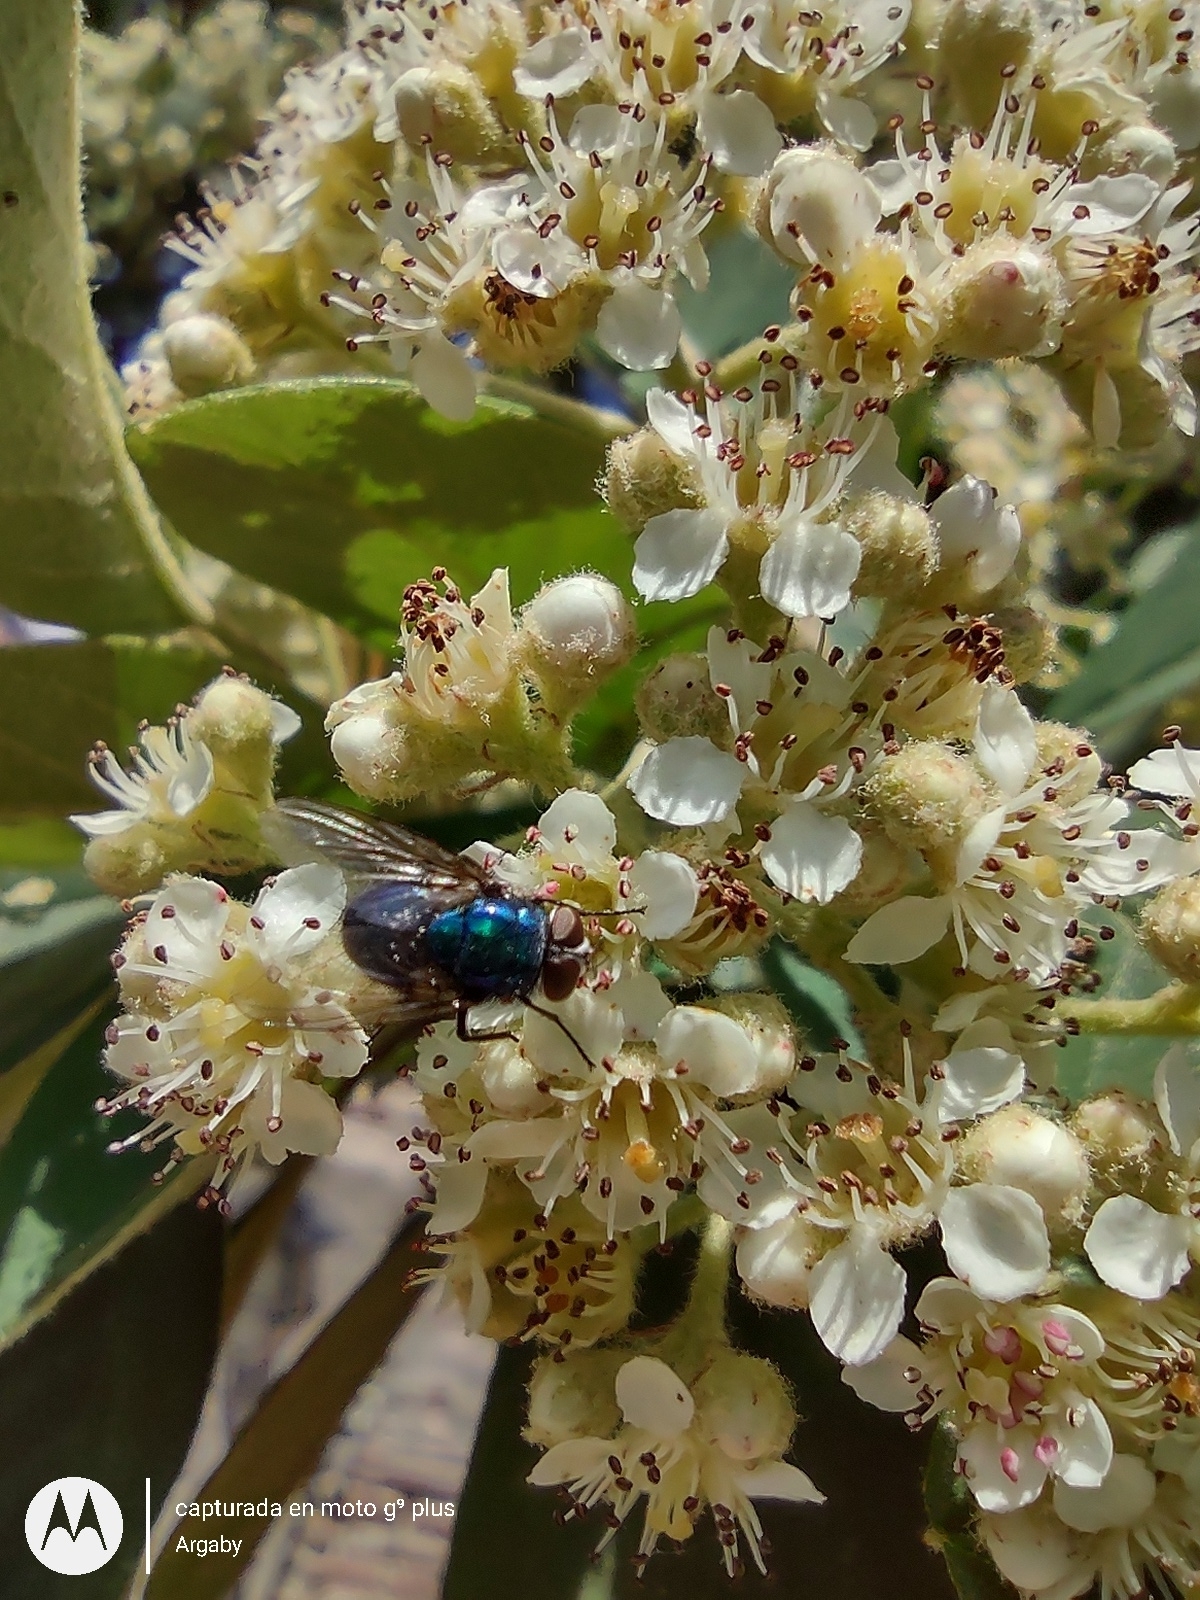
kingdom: Animalia
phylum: Arthropoda
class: Insecta
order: Diptera
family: Calliphoridae
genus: Lucilia
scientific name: Lucilia eximia
